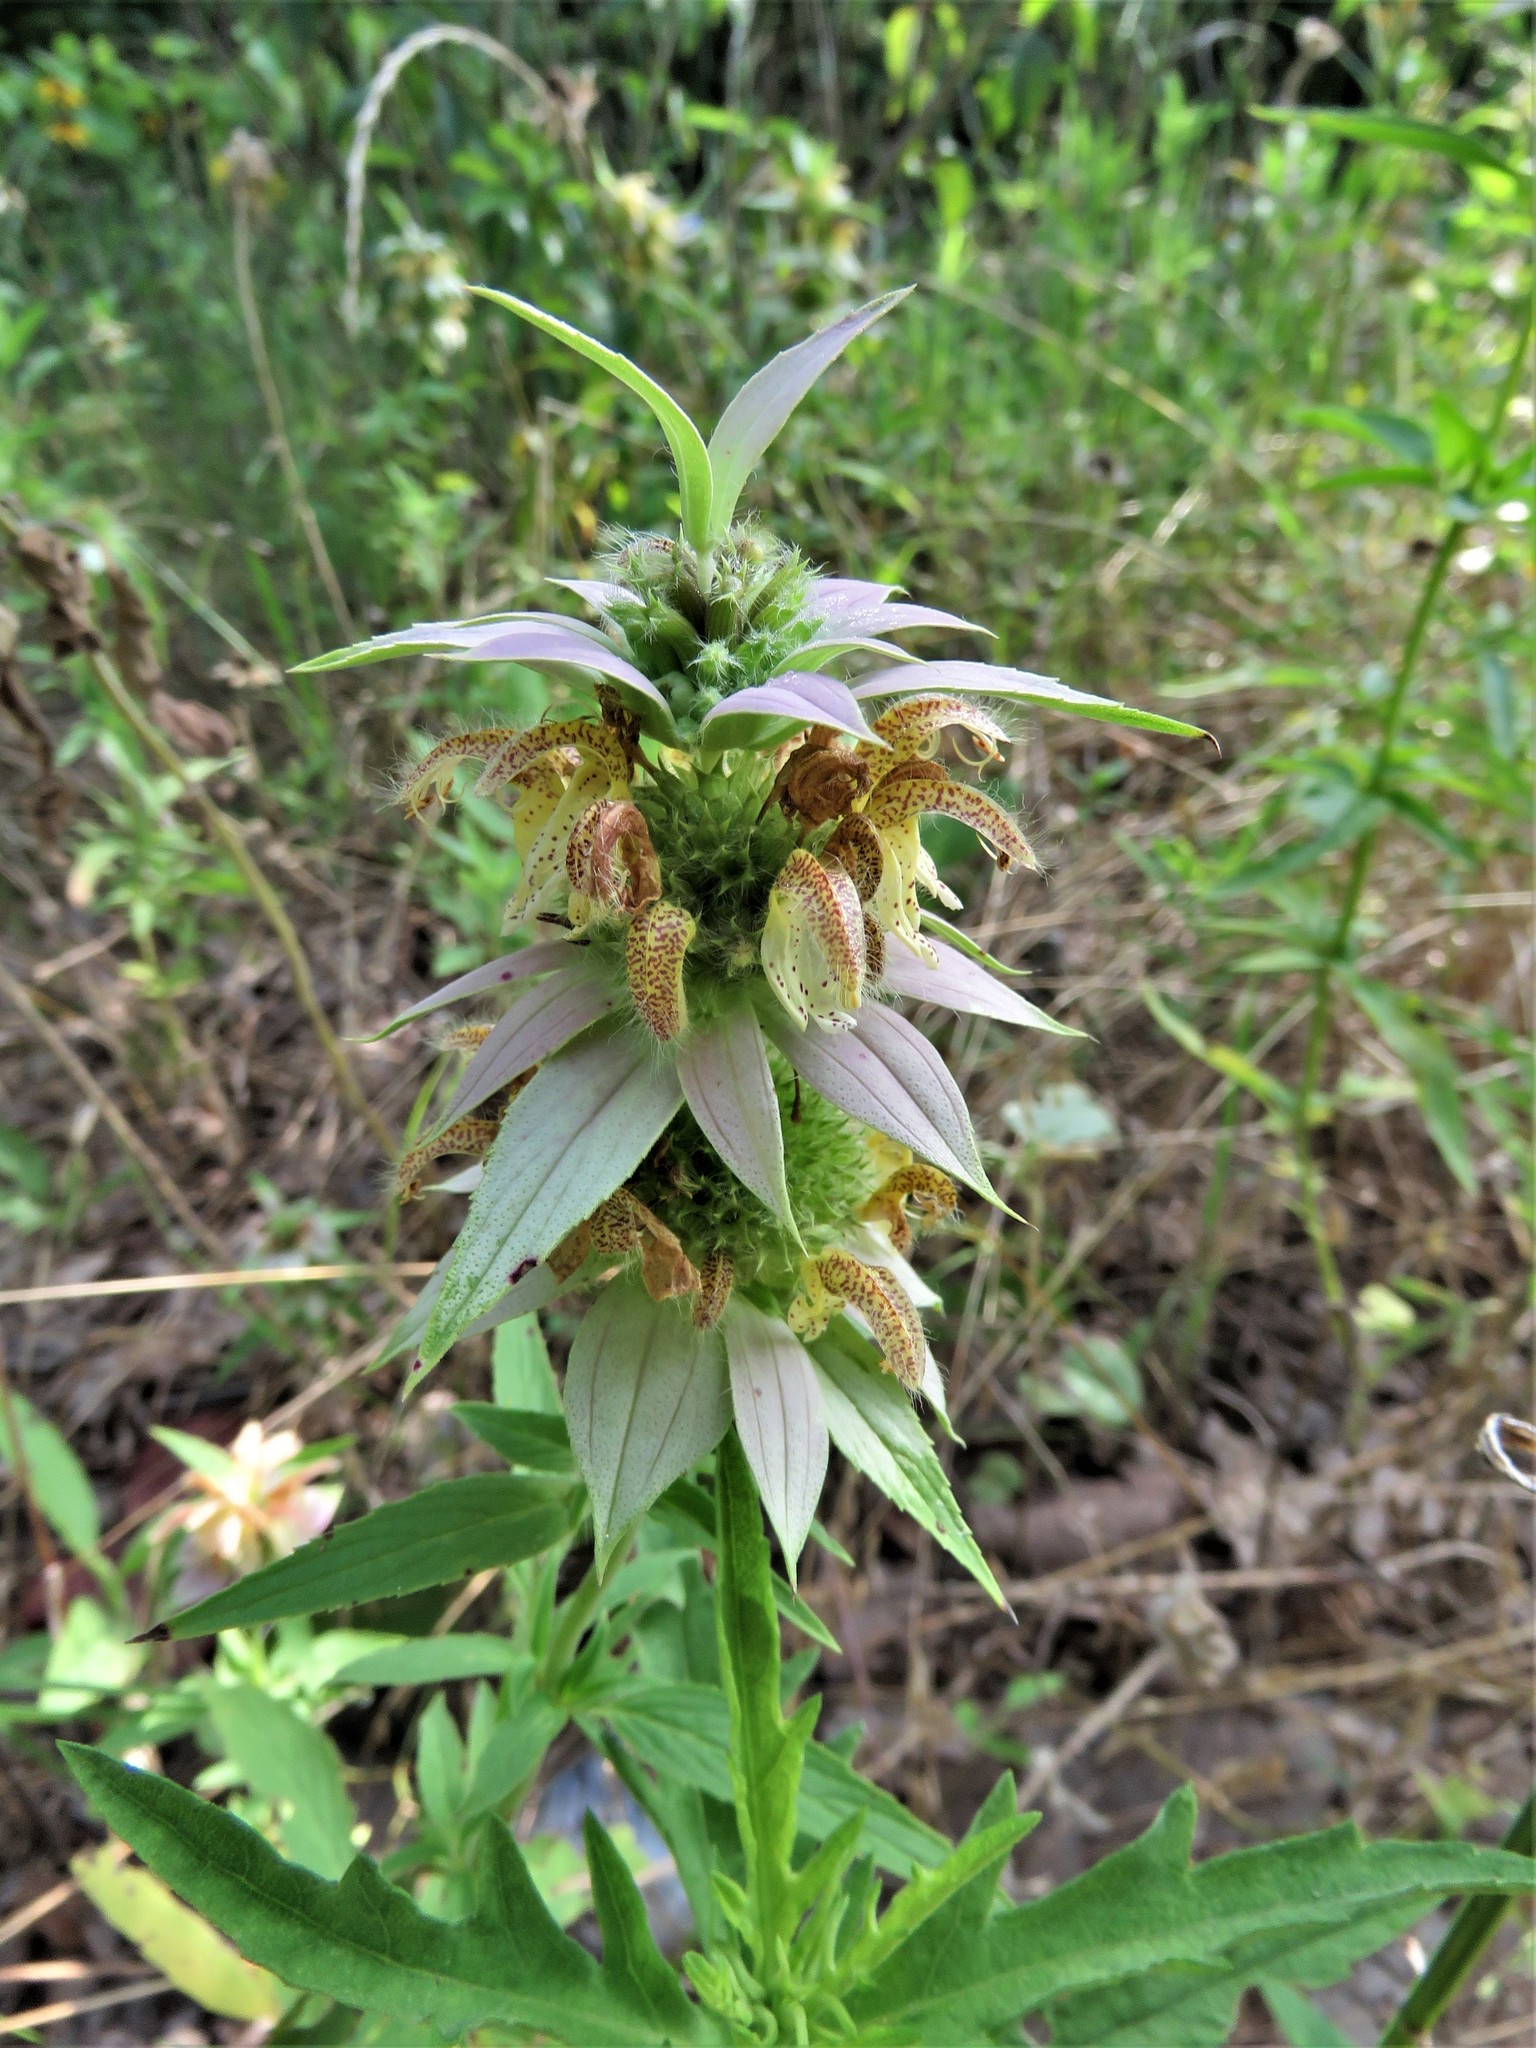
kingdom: Plantae
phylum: Tracheophyta
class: Magnoliopsida
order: Lamiales
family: Lamiaceae
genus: Monarda
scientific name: Monarda punctata
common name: Dotted monarda
